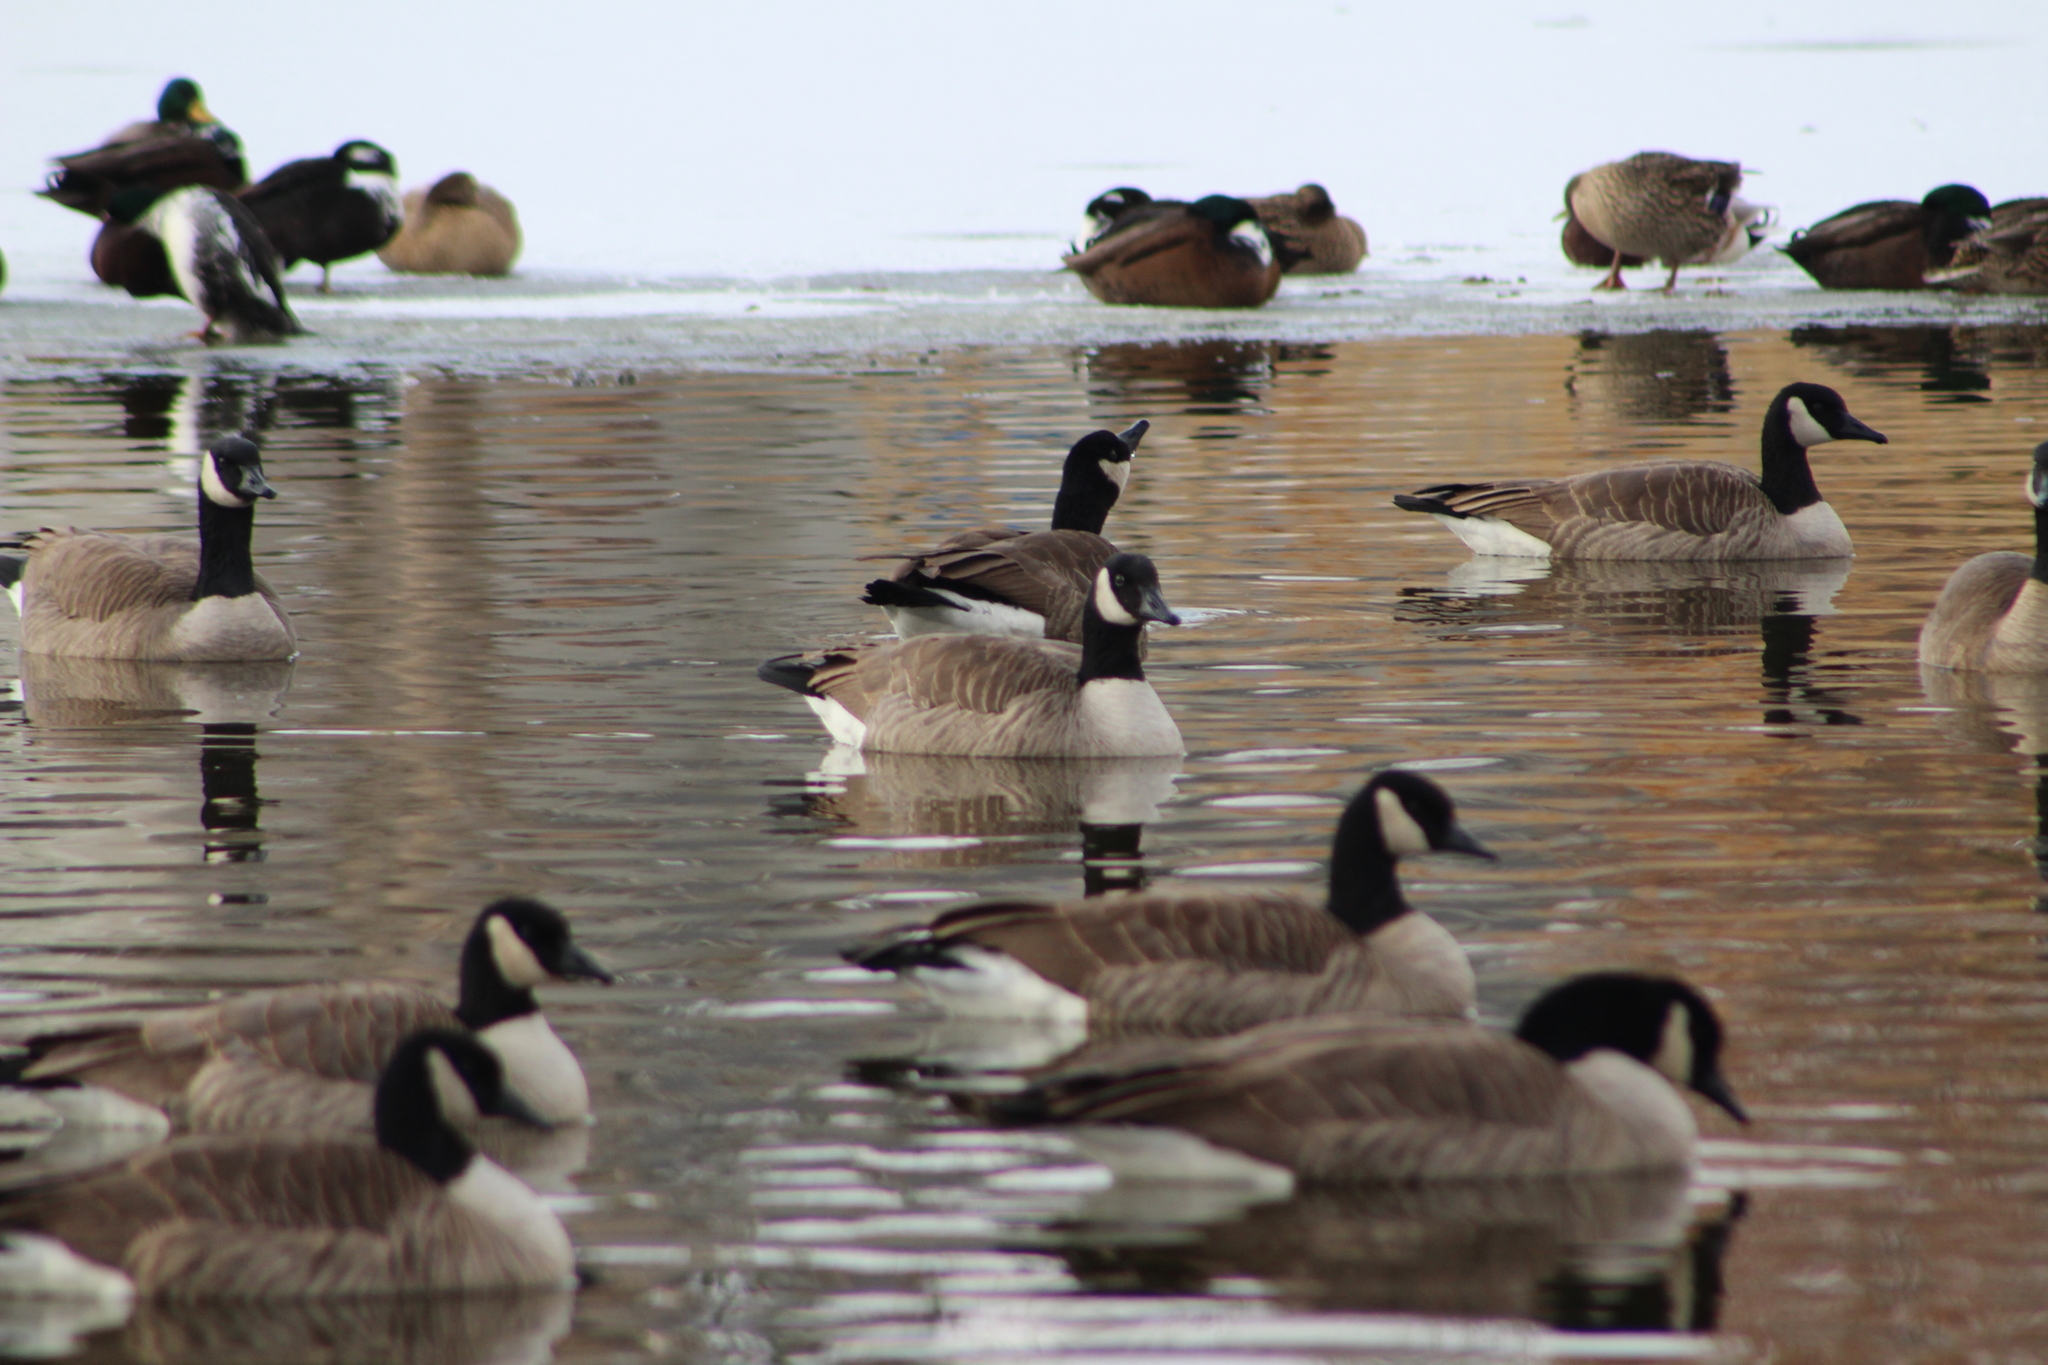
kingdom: Animalia
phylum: Chordata
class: Aves
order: Anseriformes
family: Anatidae
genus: Branta
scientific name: Branta canadensis
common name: Canada goose
